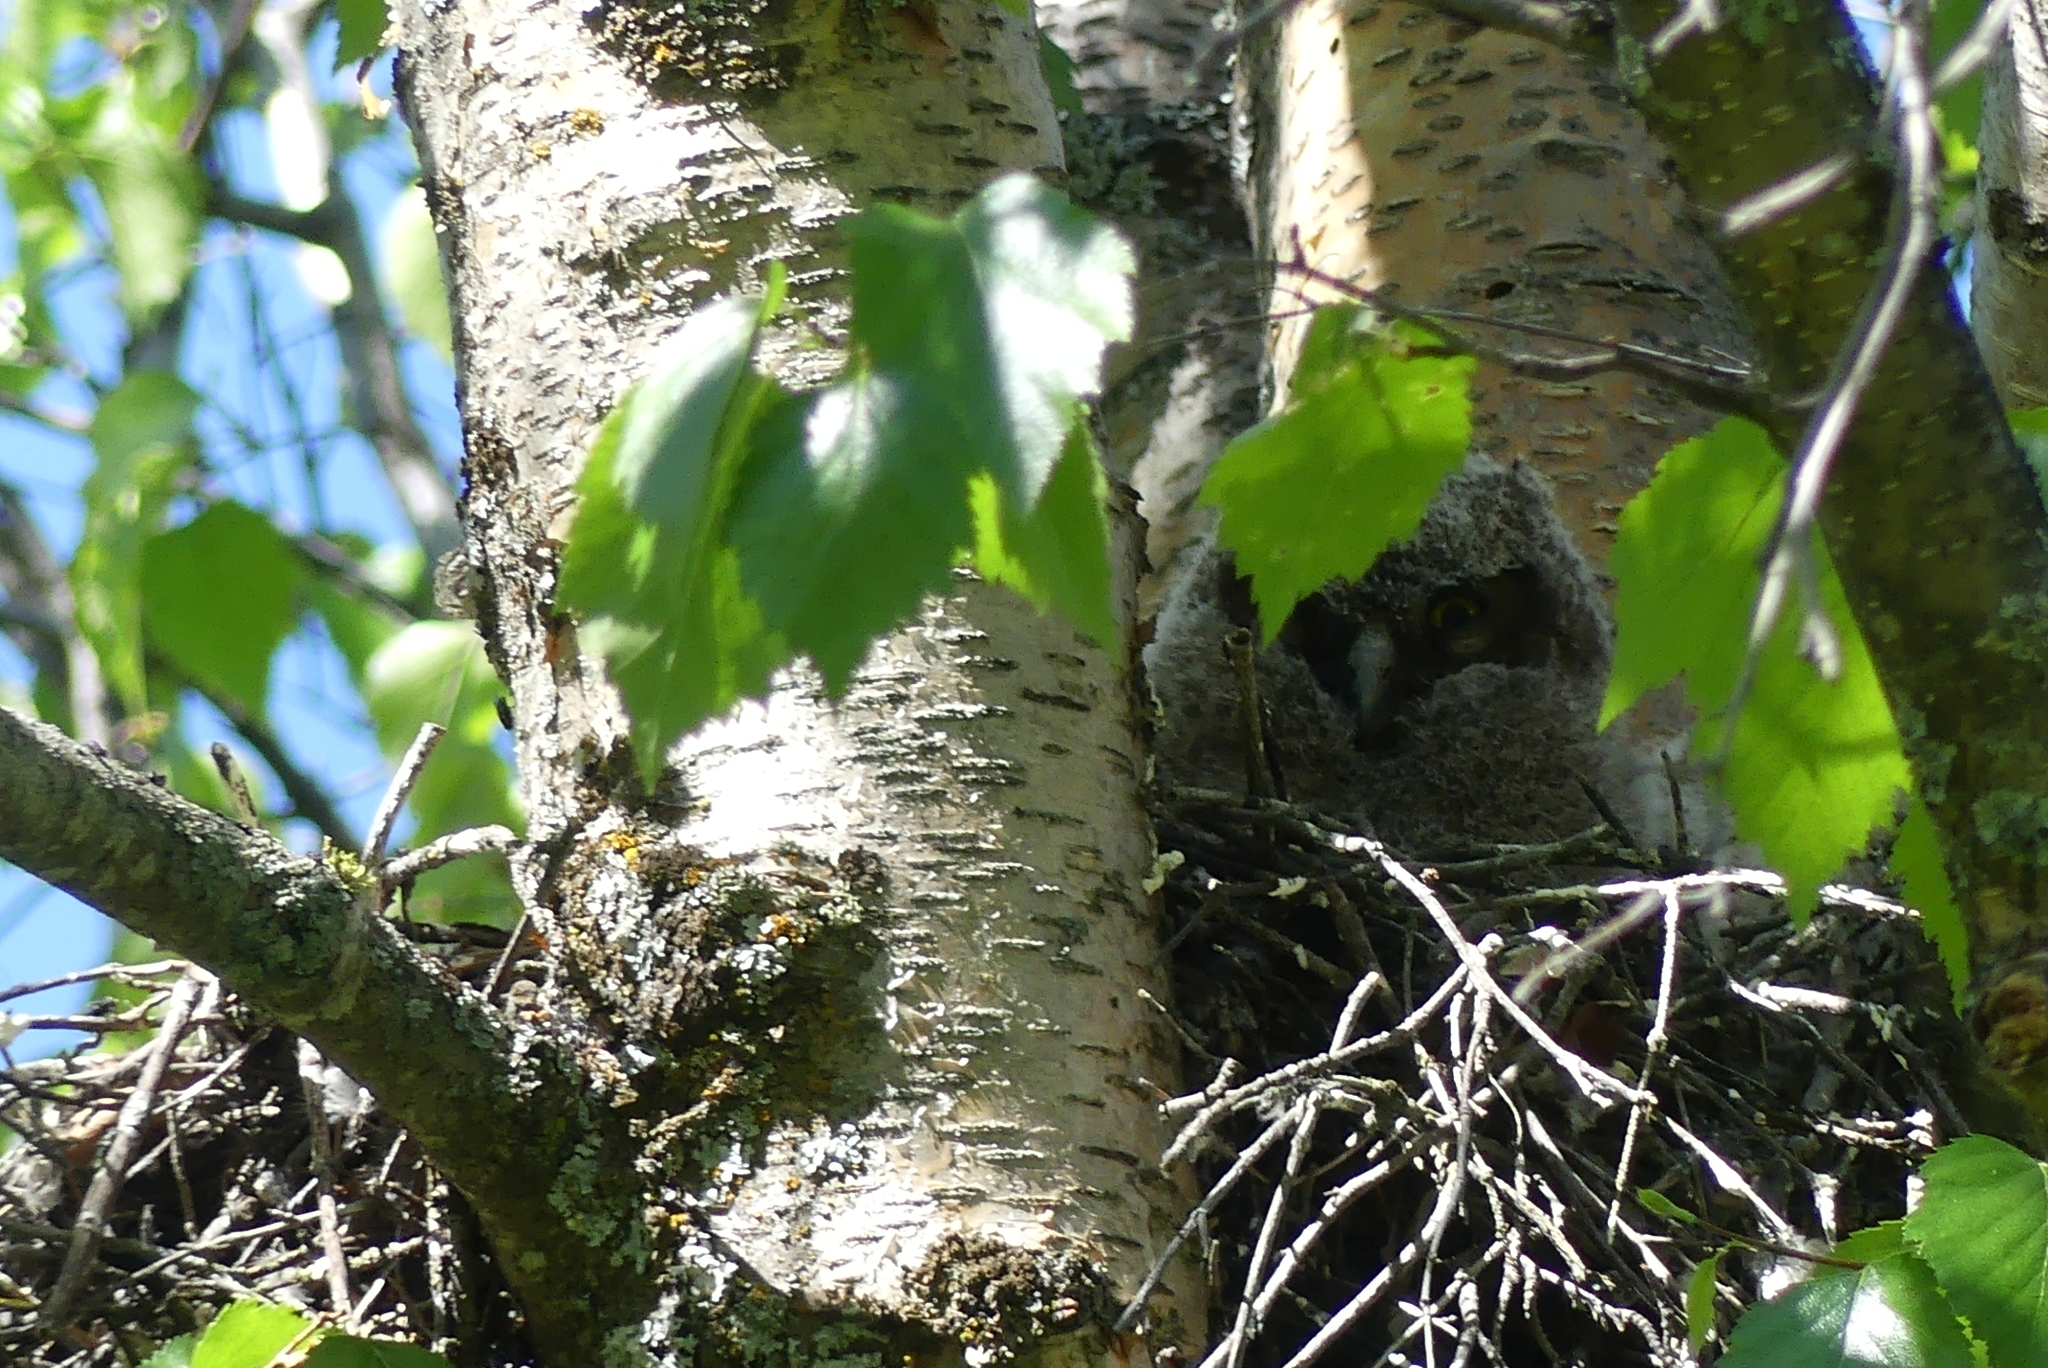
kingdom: Animalia
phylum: Chordata
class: Aves
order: Strigiformes
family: Strigidae
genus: Bubo
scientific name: Bubo virginianus
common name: Great horned owl
